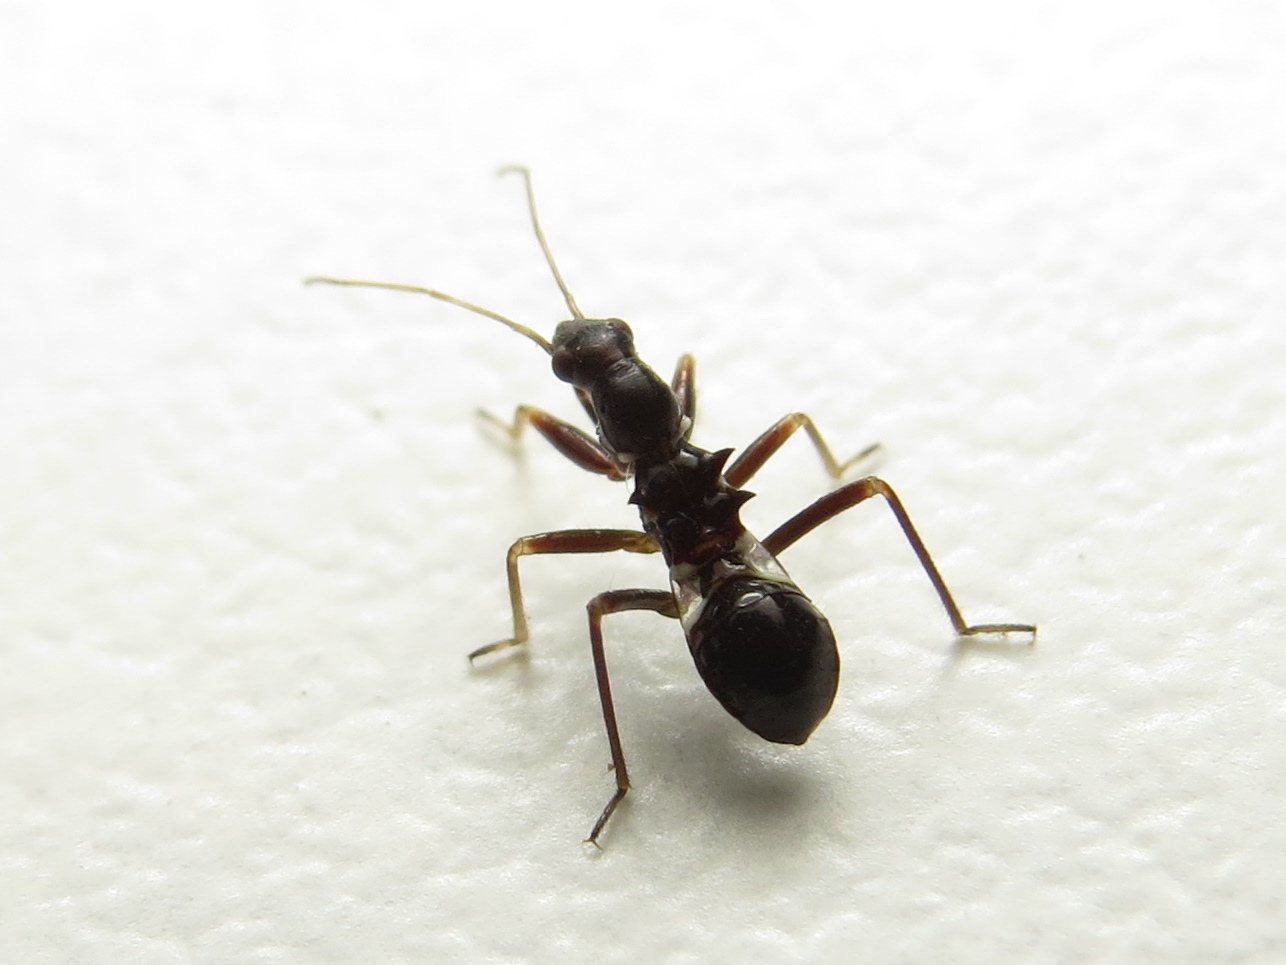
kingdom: Animalia
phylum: Arthropoda
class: Insecta
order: Hemiptera
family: Nabidae
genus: Himacerus
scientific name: Himacerus mirmicoides
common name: Ant damsel bug
